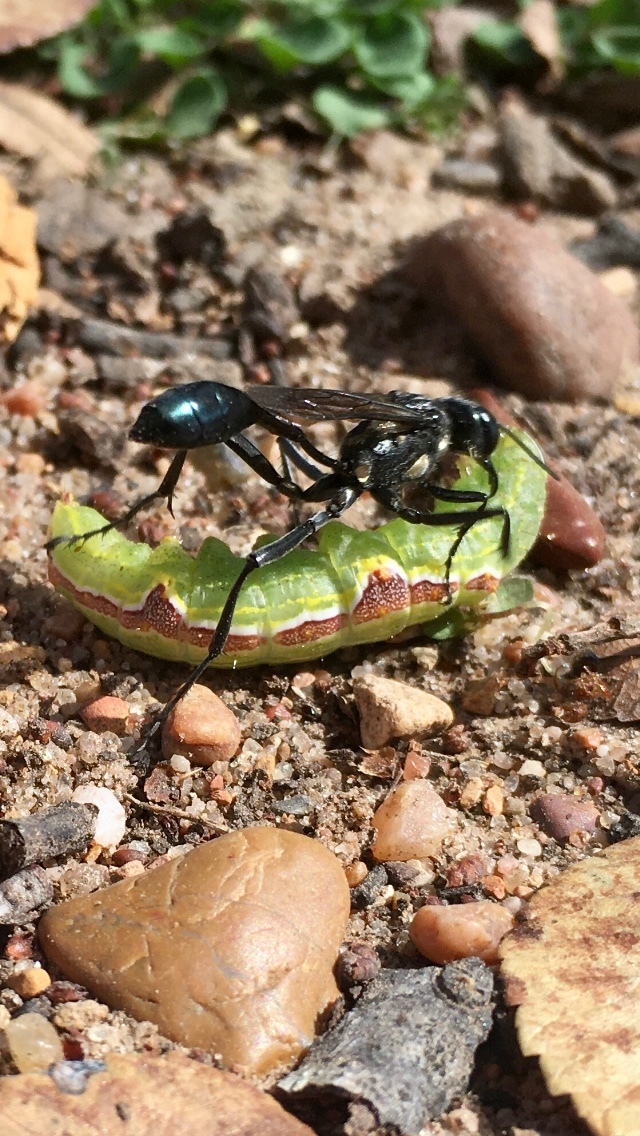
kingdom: Animalia
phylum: Arthropoda
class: Insecta
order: Hymenoptera
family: Sphecidae
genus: Eremnophila
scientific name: Eremnophila aureonotata
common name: Gold-marked thread-waisted wasp
